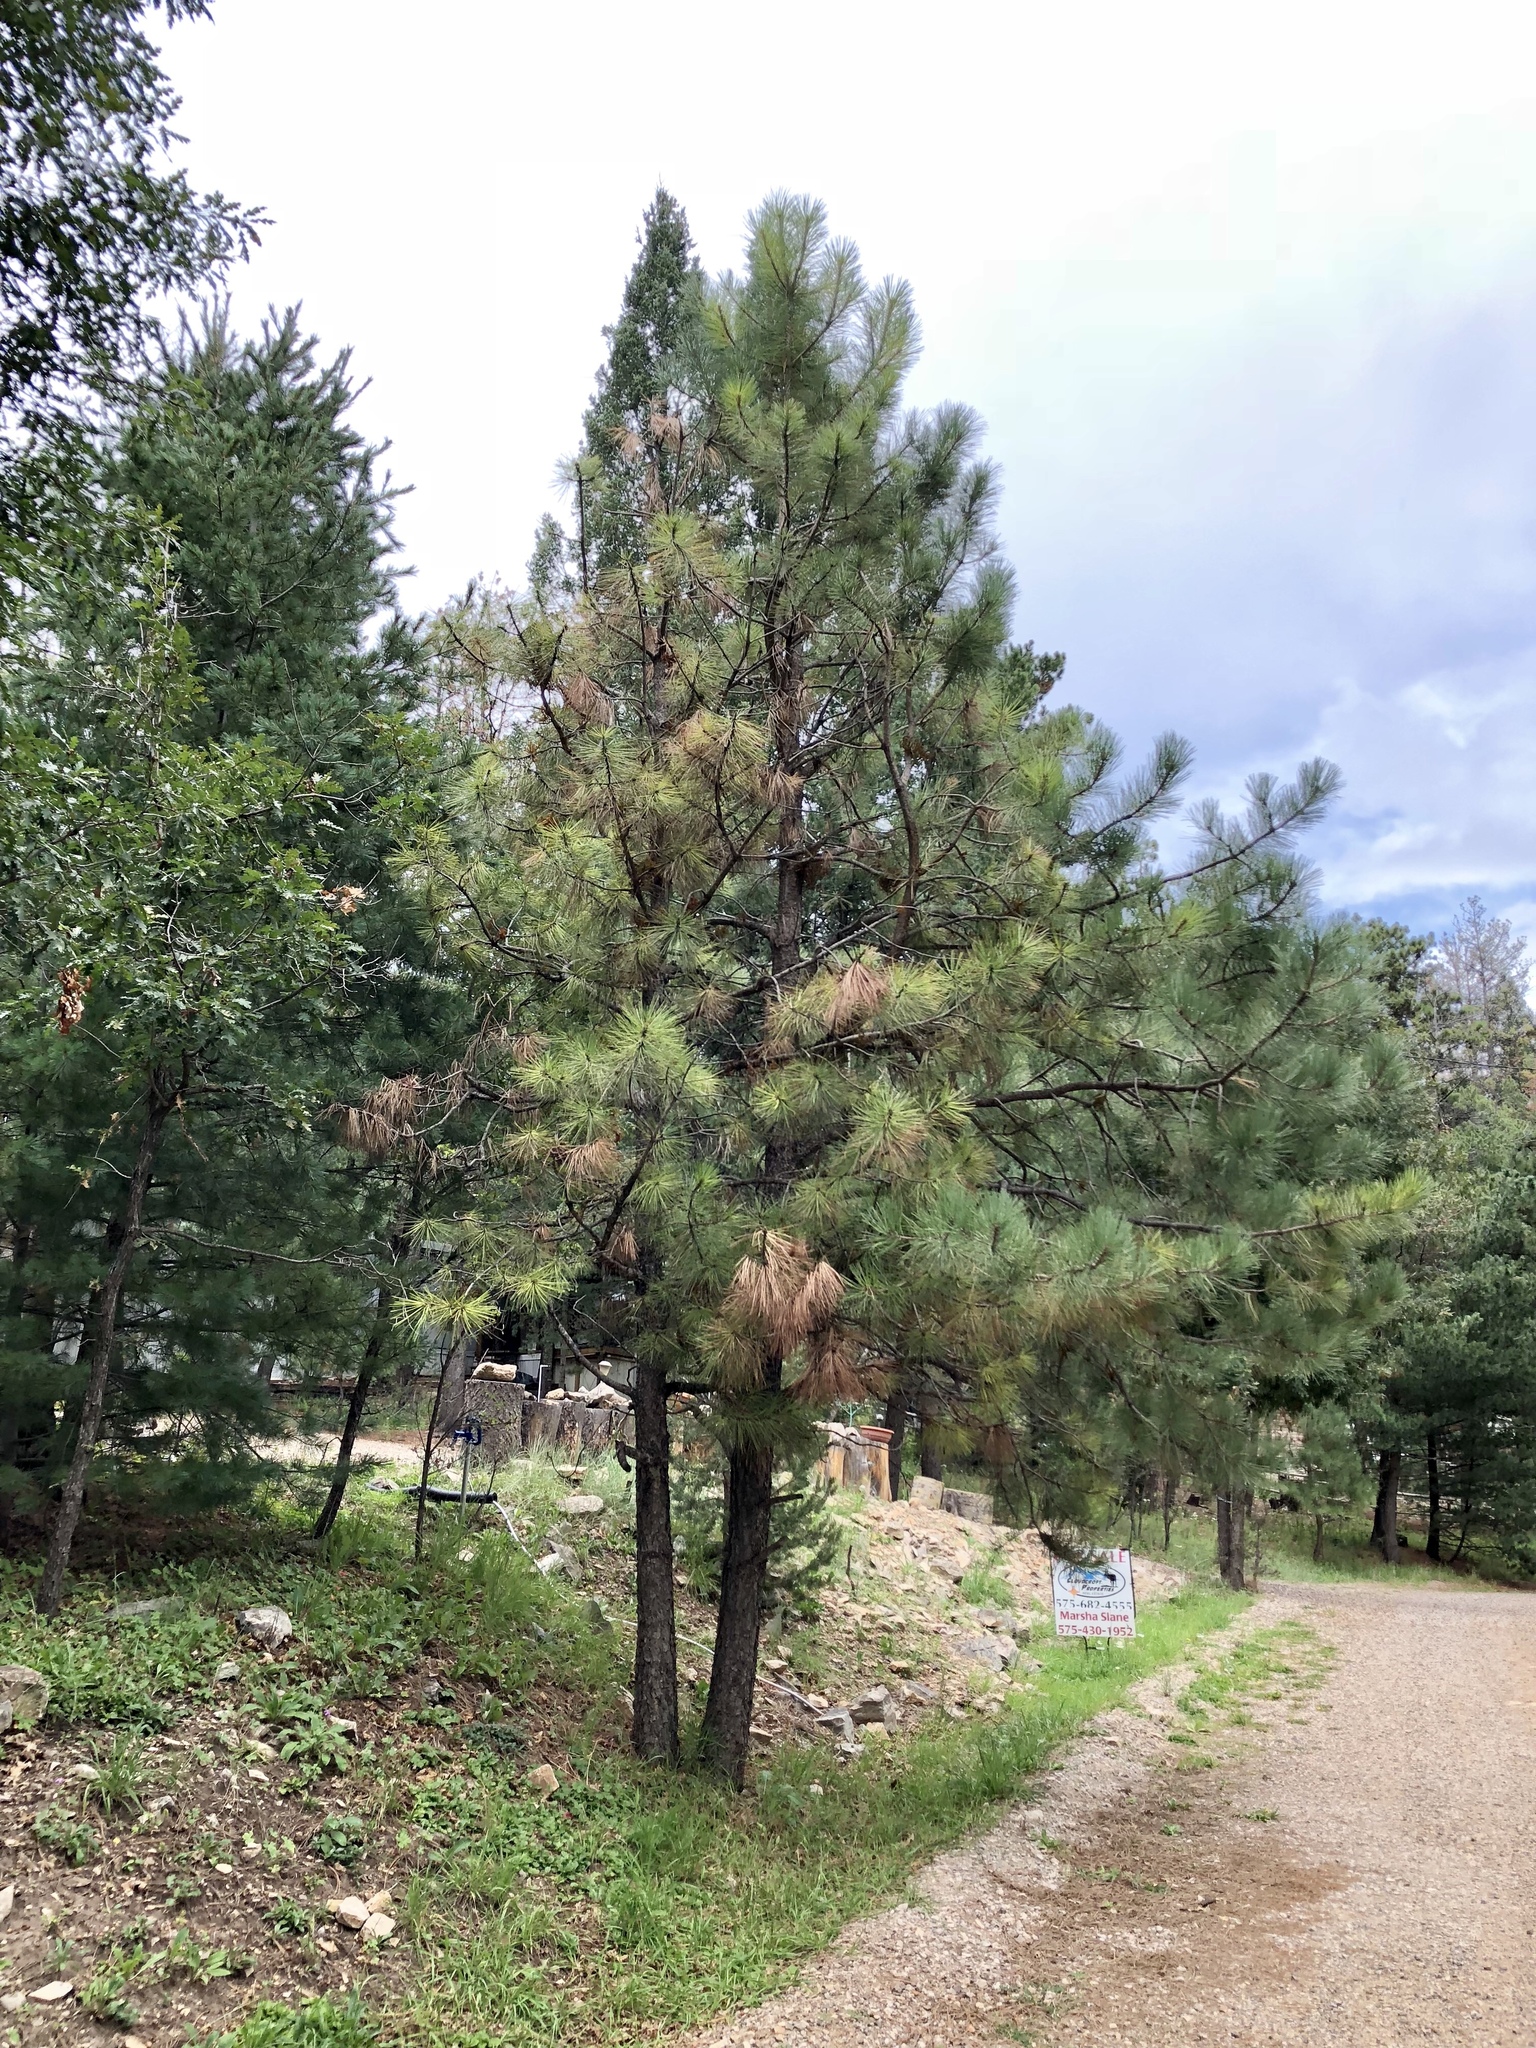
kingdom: Plantae
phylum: Tracheophyta
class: Pinopsida
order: Pinales
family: Pinaceae
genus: Pinus
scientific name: Pinus ponderosa
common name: Western yellow-pine
